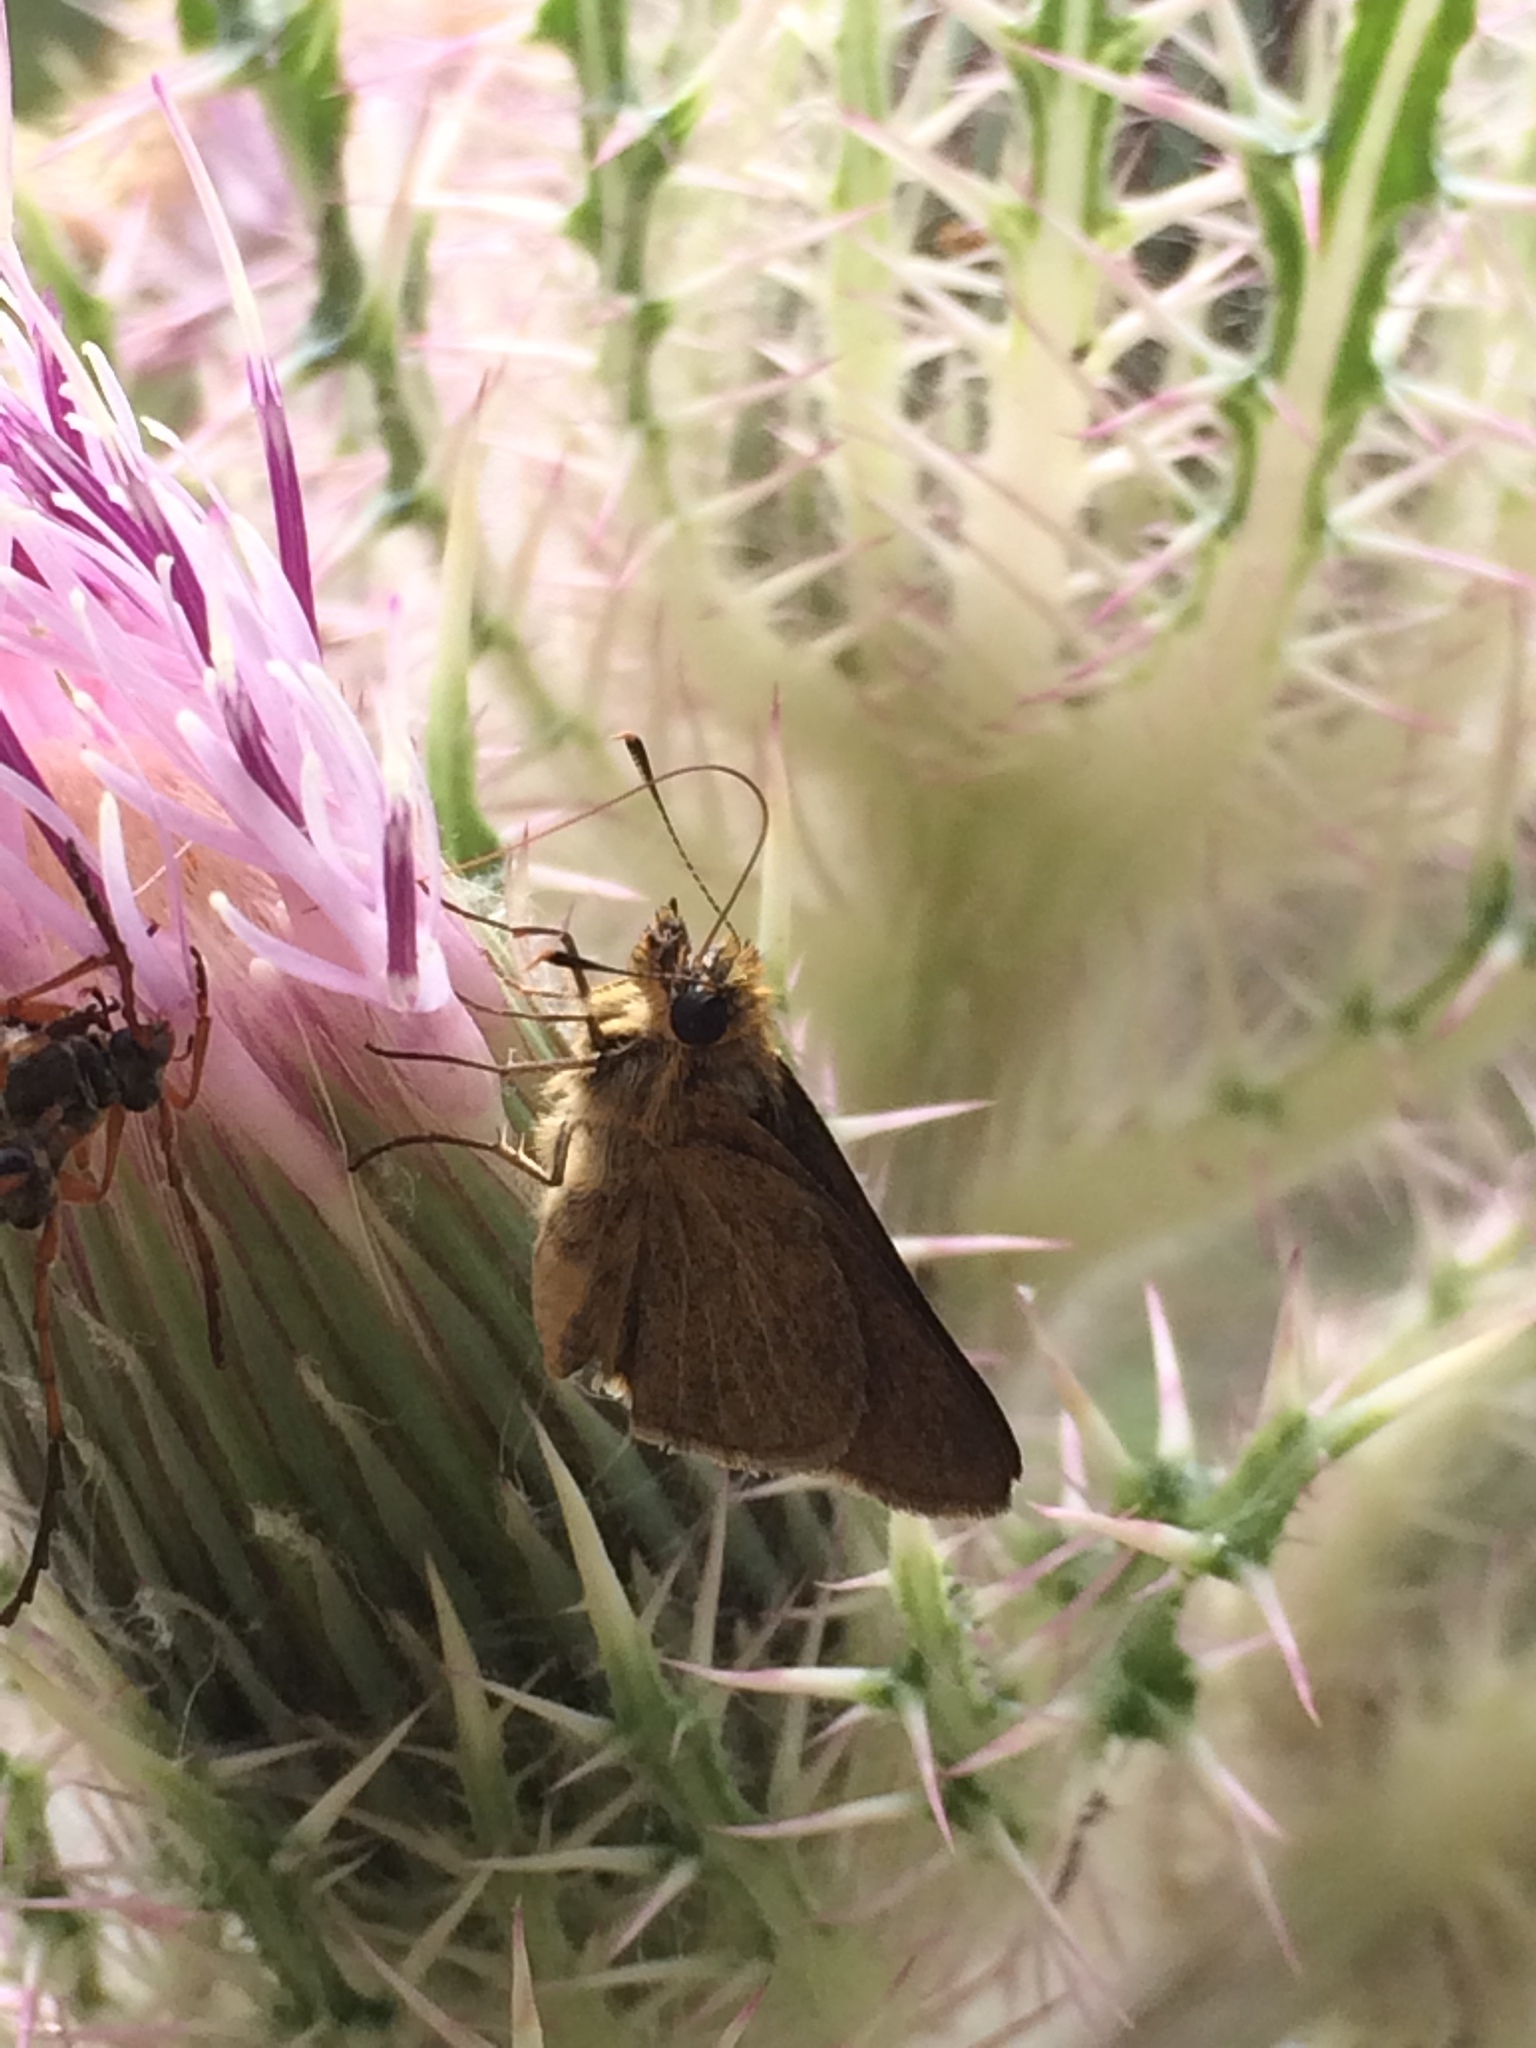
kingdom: Animalia
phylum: Arthropoda
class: Insecta
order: Lepidoptera
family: Hesperiidae
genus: Nastra
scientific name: Nastra lherminier
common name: Swarthy skipper
